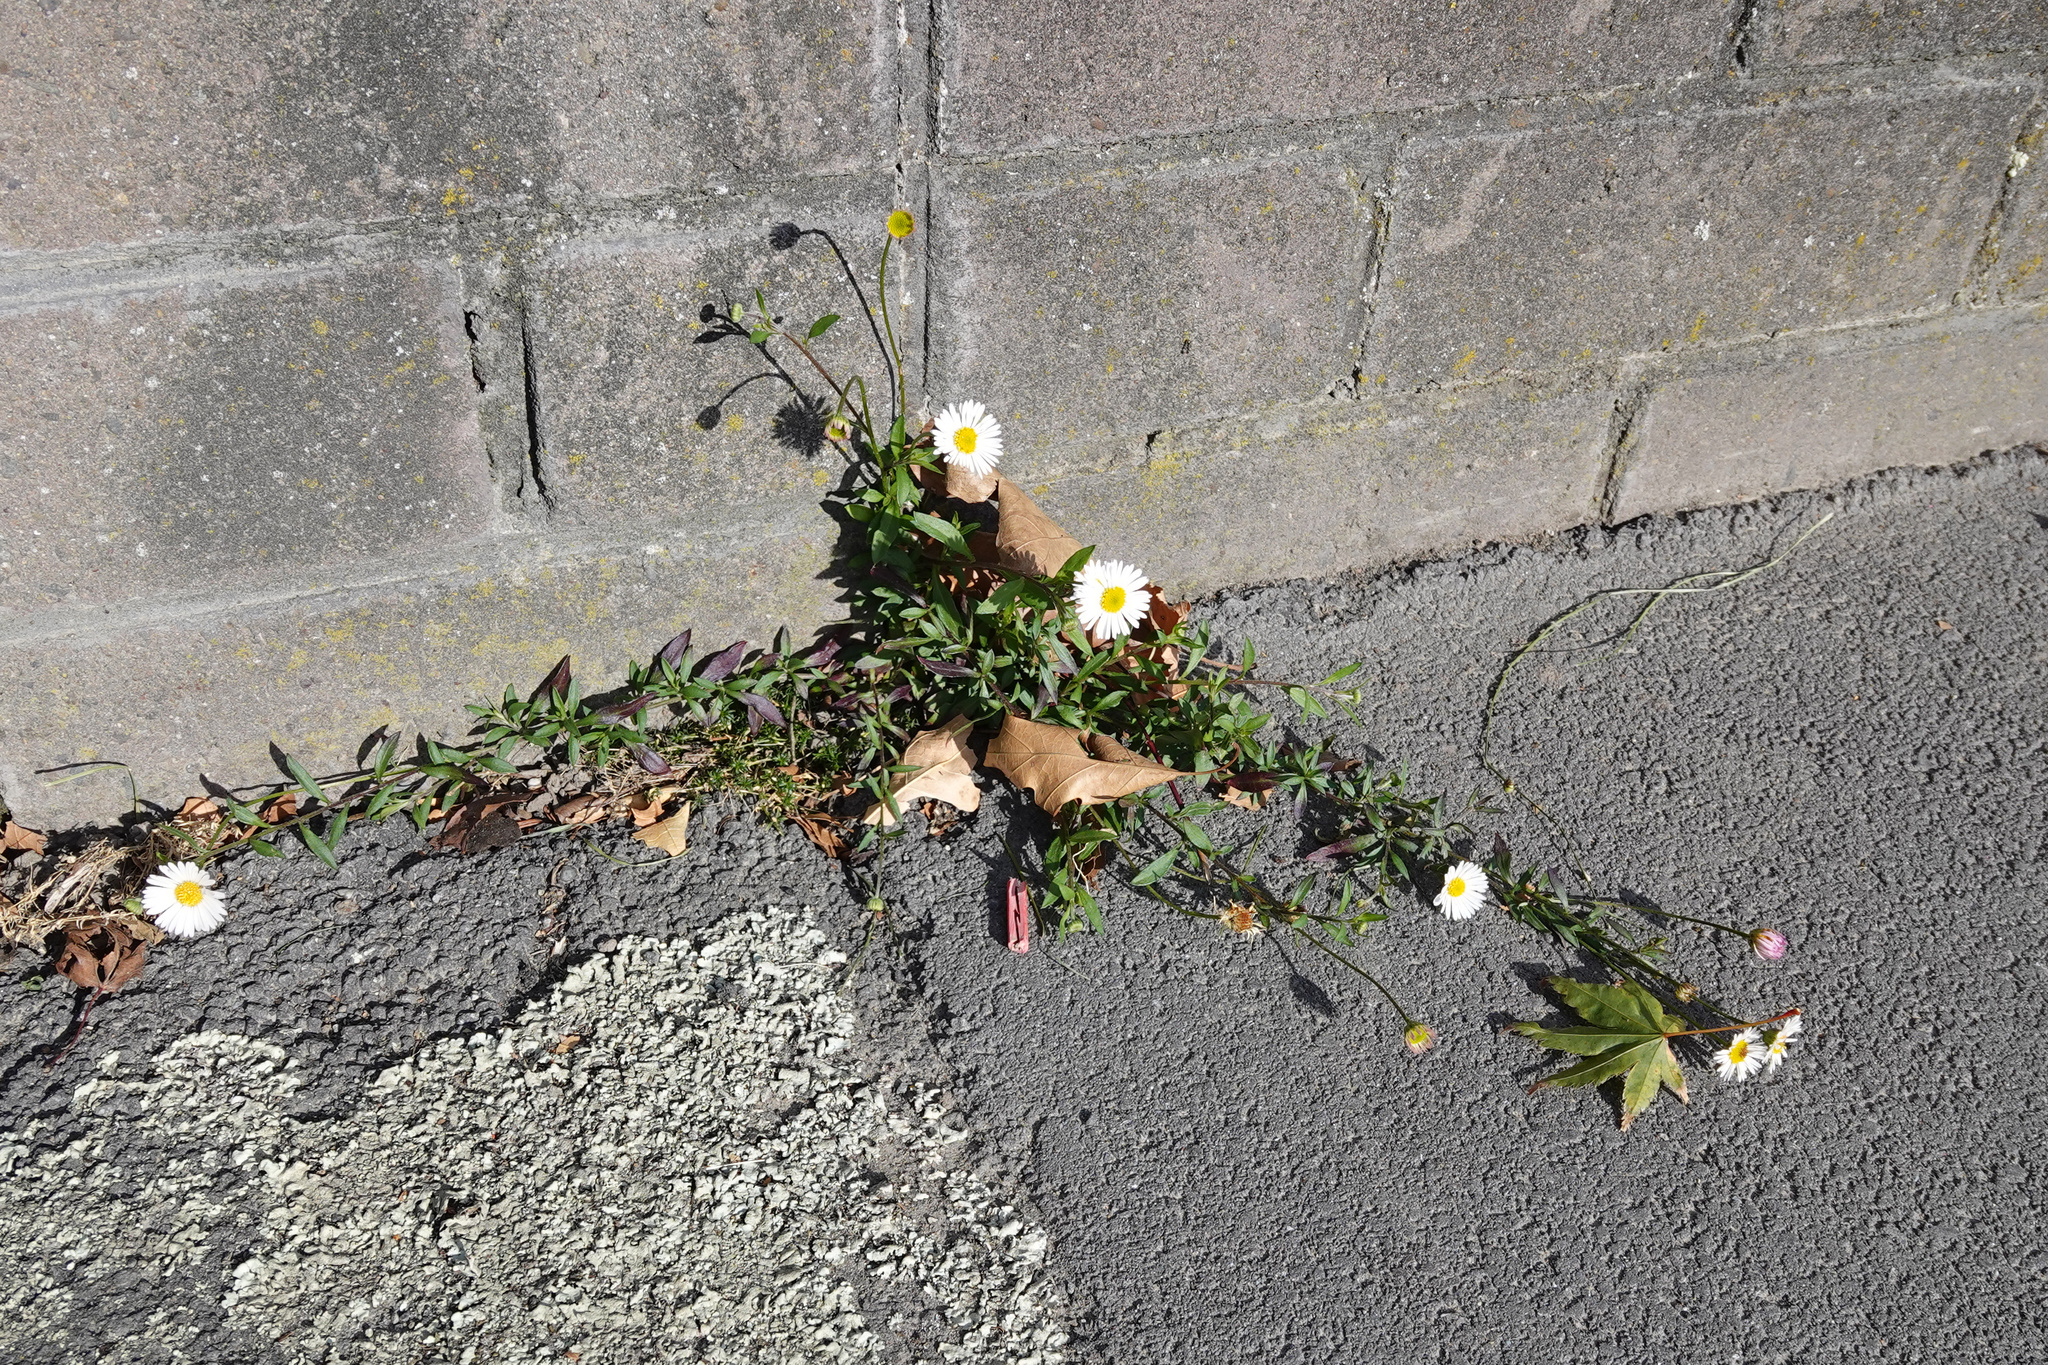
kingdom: Plantae
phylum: Tracheophyta
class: Magnoliopsida
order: Asterales
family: Asteraceae
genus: Erigeron
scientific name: Erigeron karvinskianus
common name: Mexican fleabane
